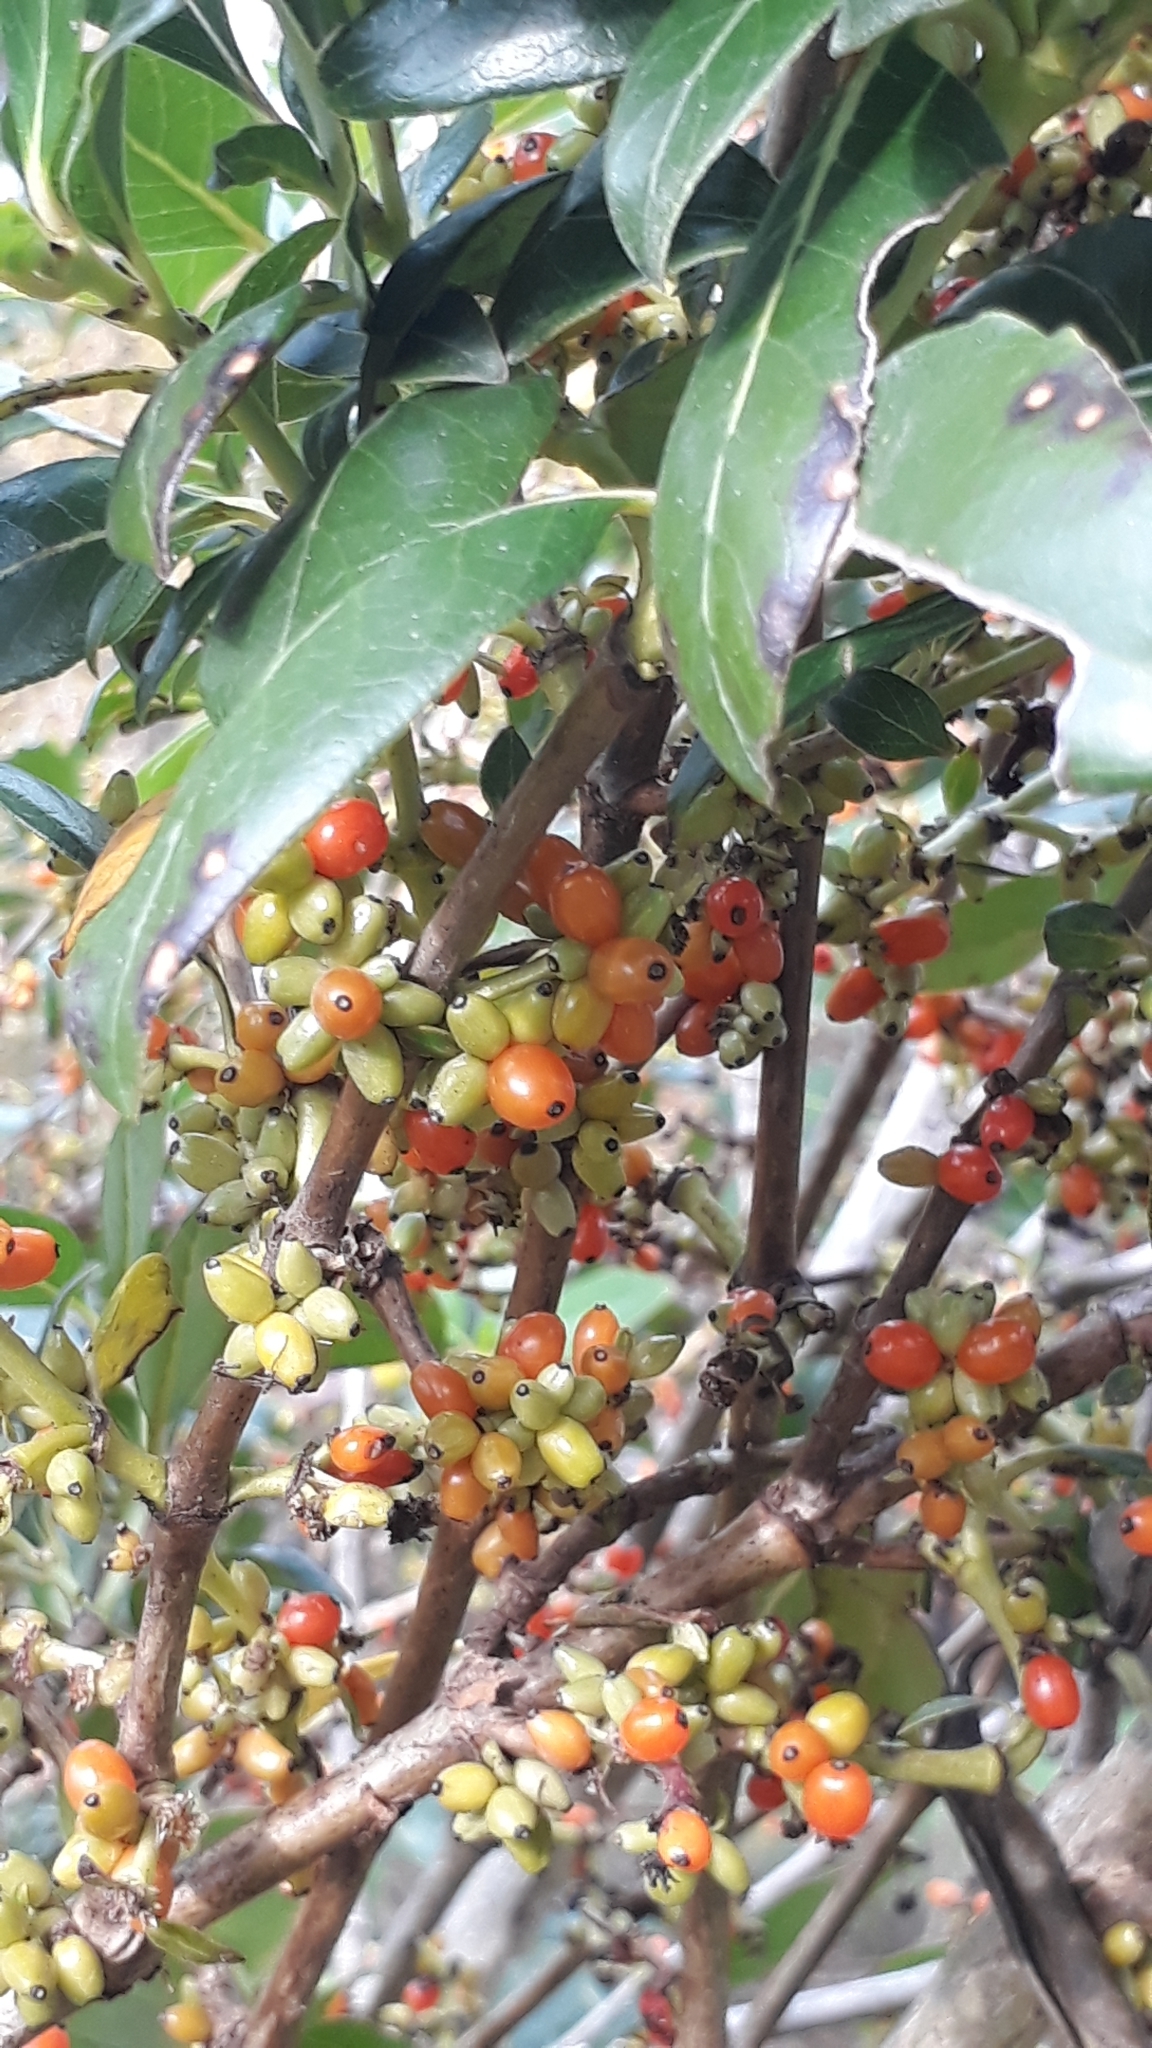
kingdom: Plantae
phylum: Tracheophyta
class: Magnoliopsida
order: Gentianales
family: Rubiaceae
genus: Coprosma
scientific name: Coprosma robusta
